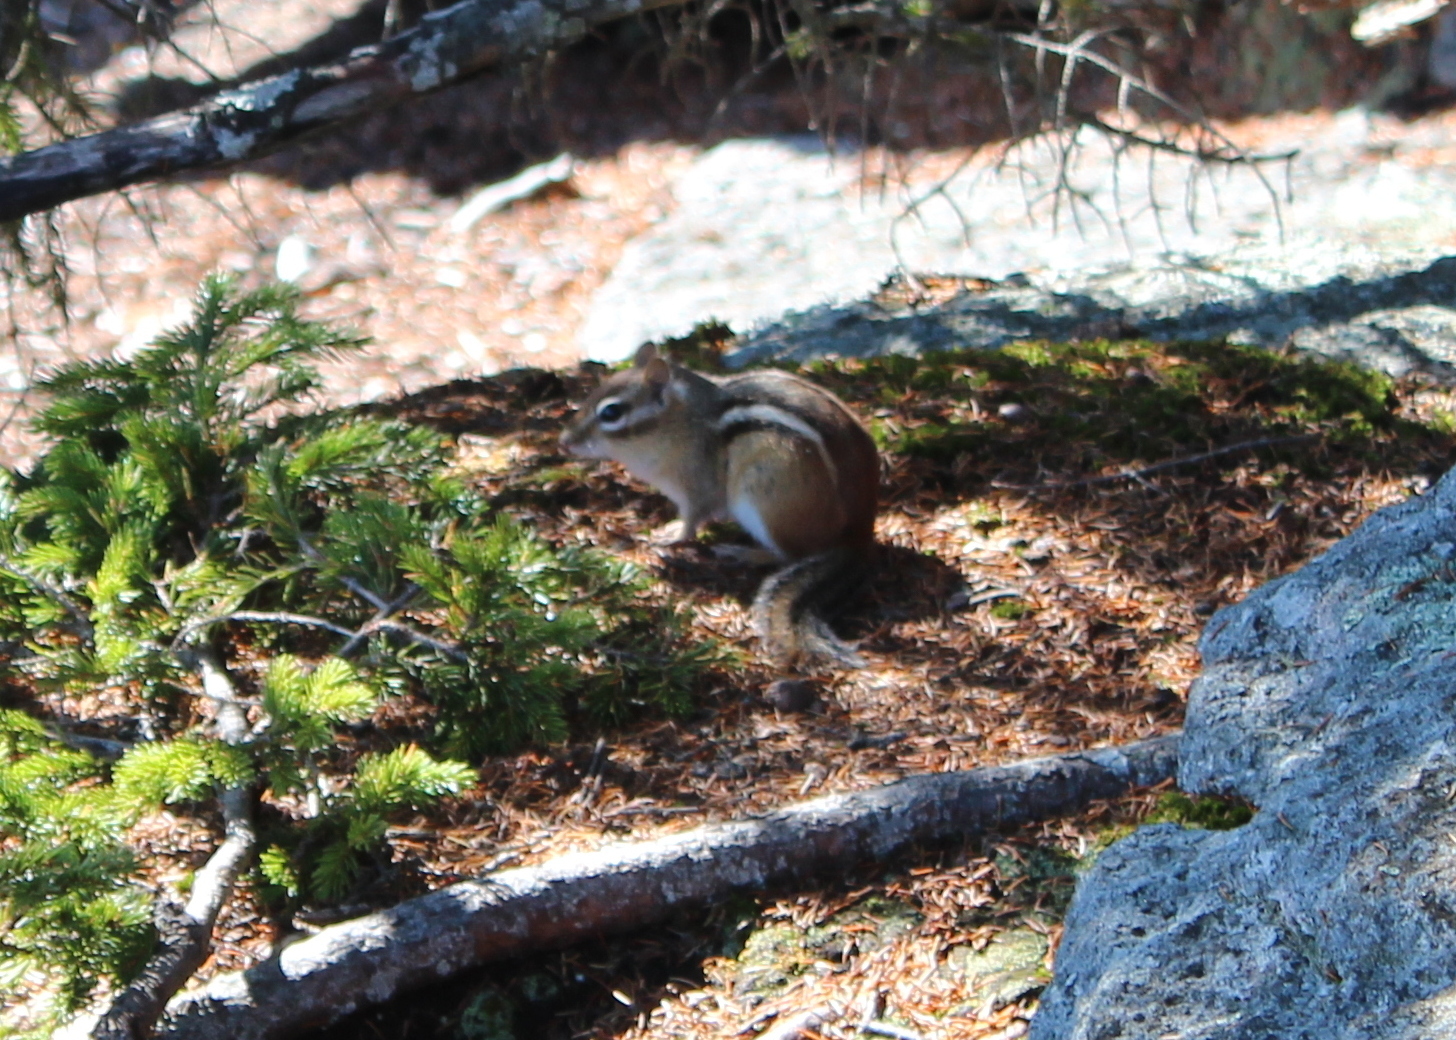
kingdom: Animalia
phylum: Chordata
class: Mammalia
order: Rodentia
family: Sciuridae
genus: Tamias
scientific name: Tamias striatus
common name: Eastern chipmunk
